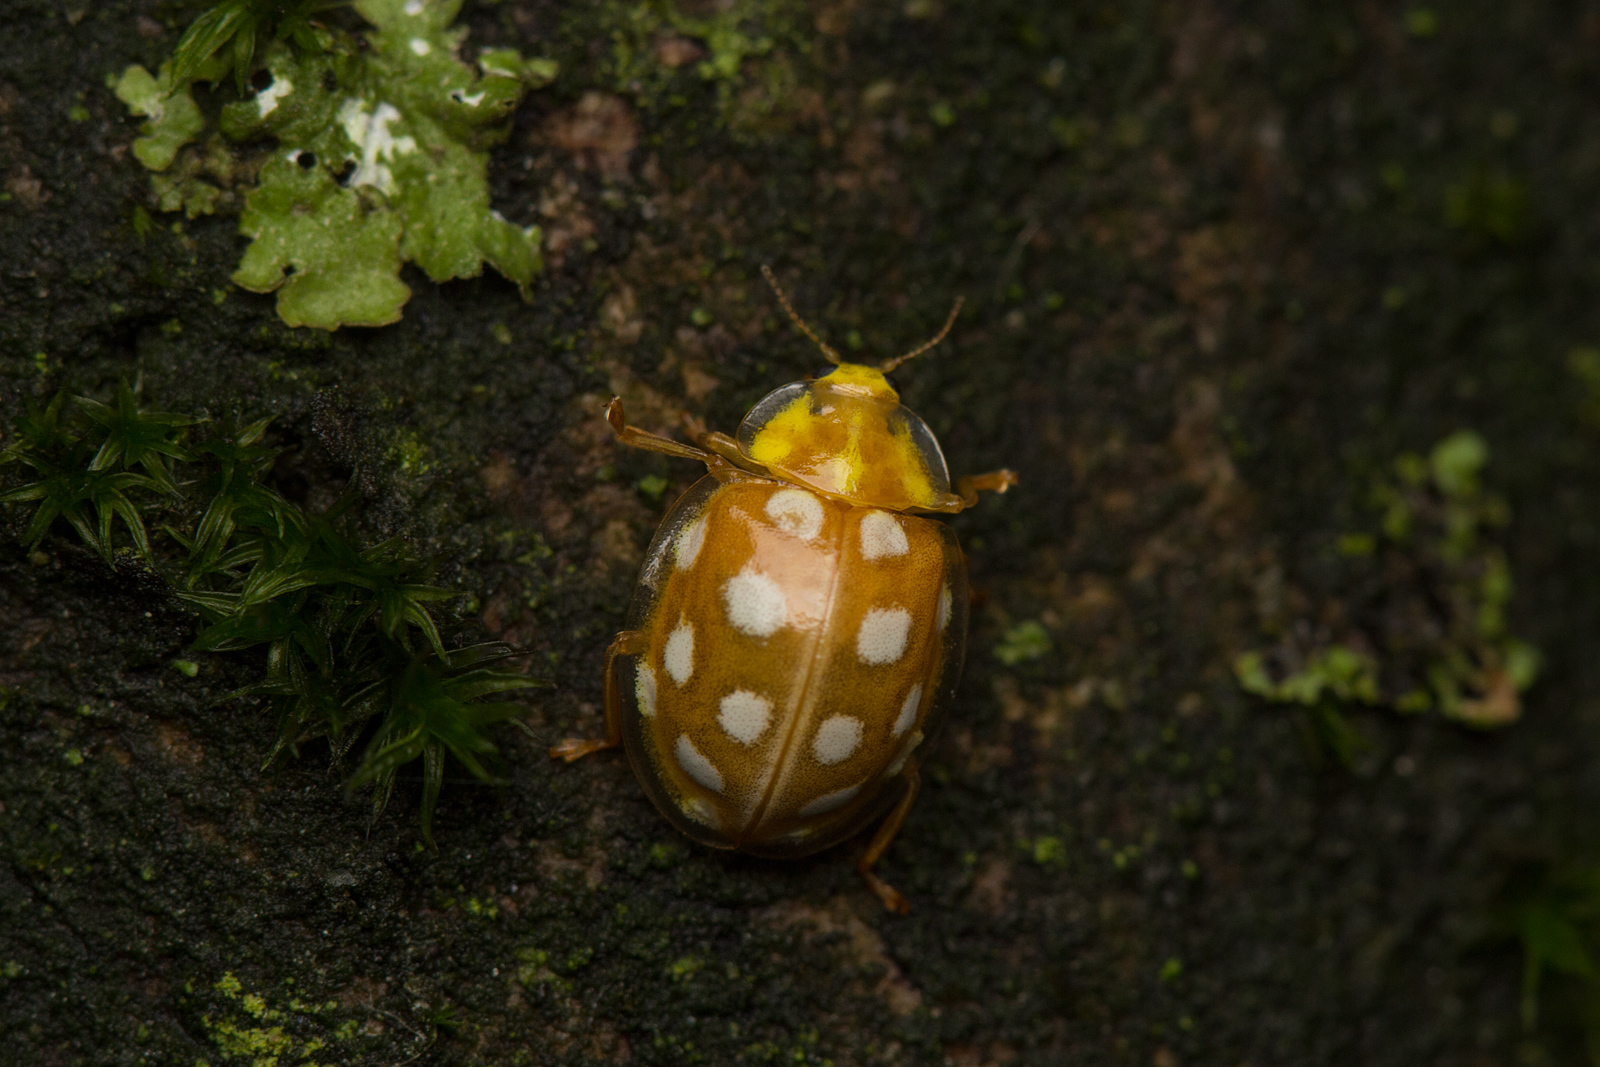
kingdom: Animalia
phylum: Arthropoda
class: Insecta
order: Coleoptera
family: Coccinellidae
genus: Halyzia
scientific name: Halyzia sedecimguttata
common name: Orange ladybird
